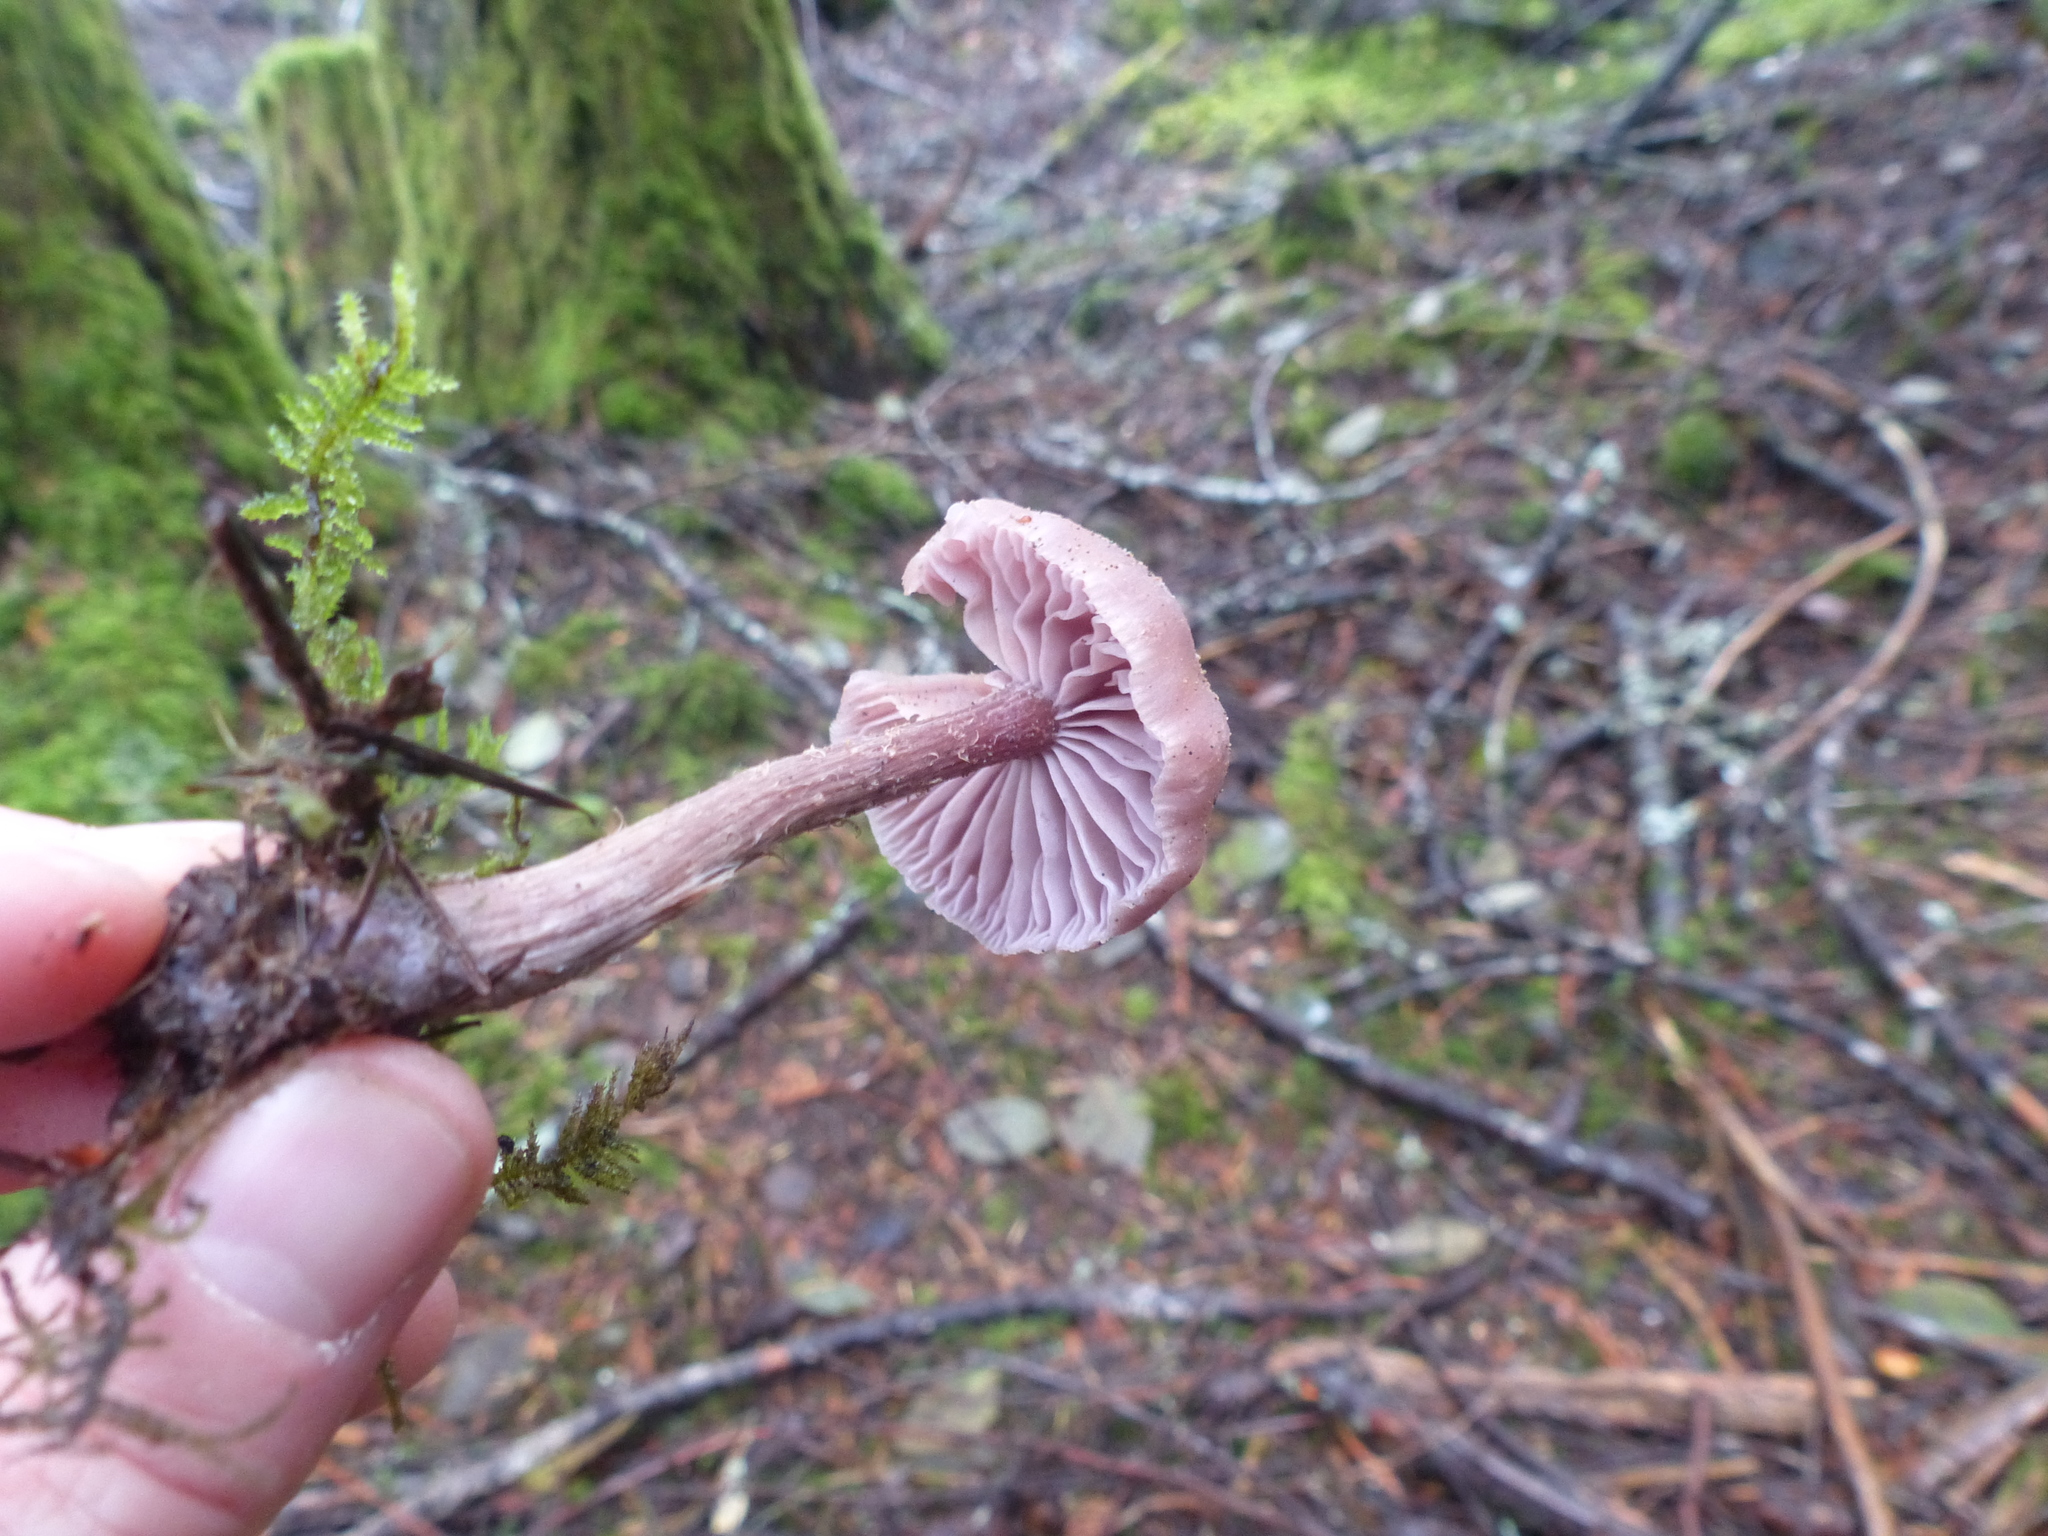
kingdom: Fungi
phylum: Basidiomycota
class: Agaricomycetes
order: Agaricales
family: Hydnangiaceae
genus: Laccaria
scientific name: Laccaria amethysteo-occidentalis
